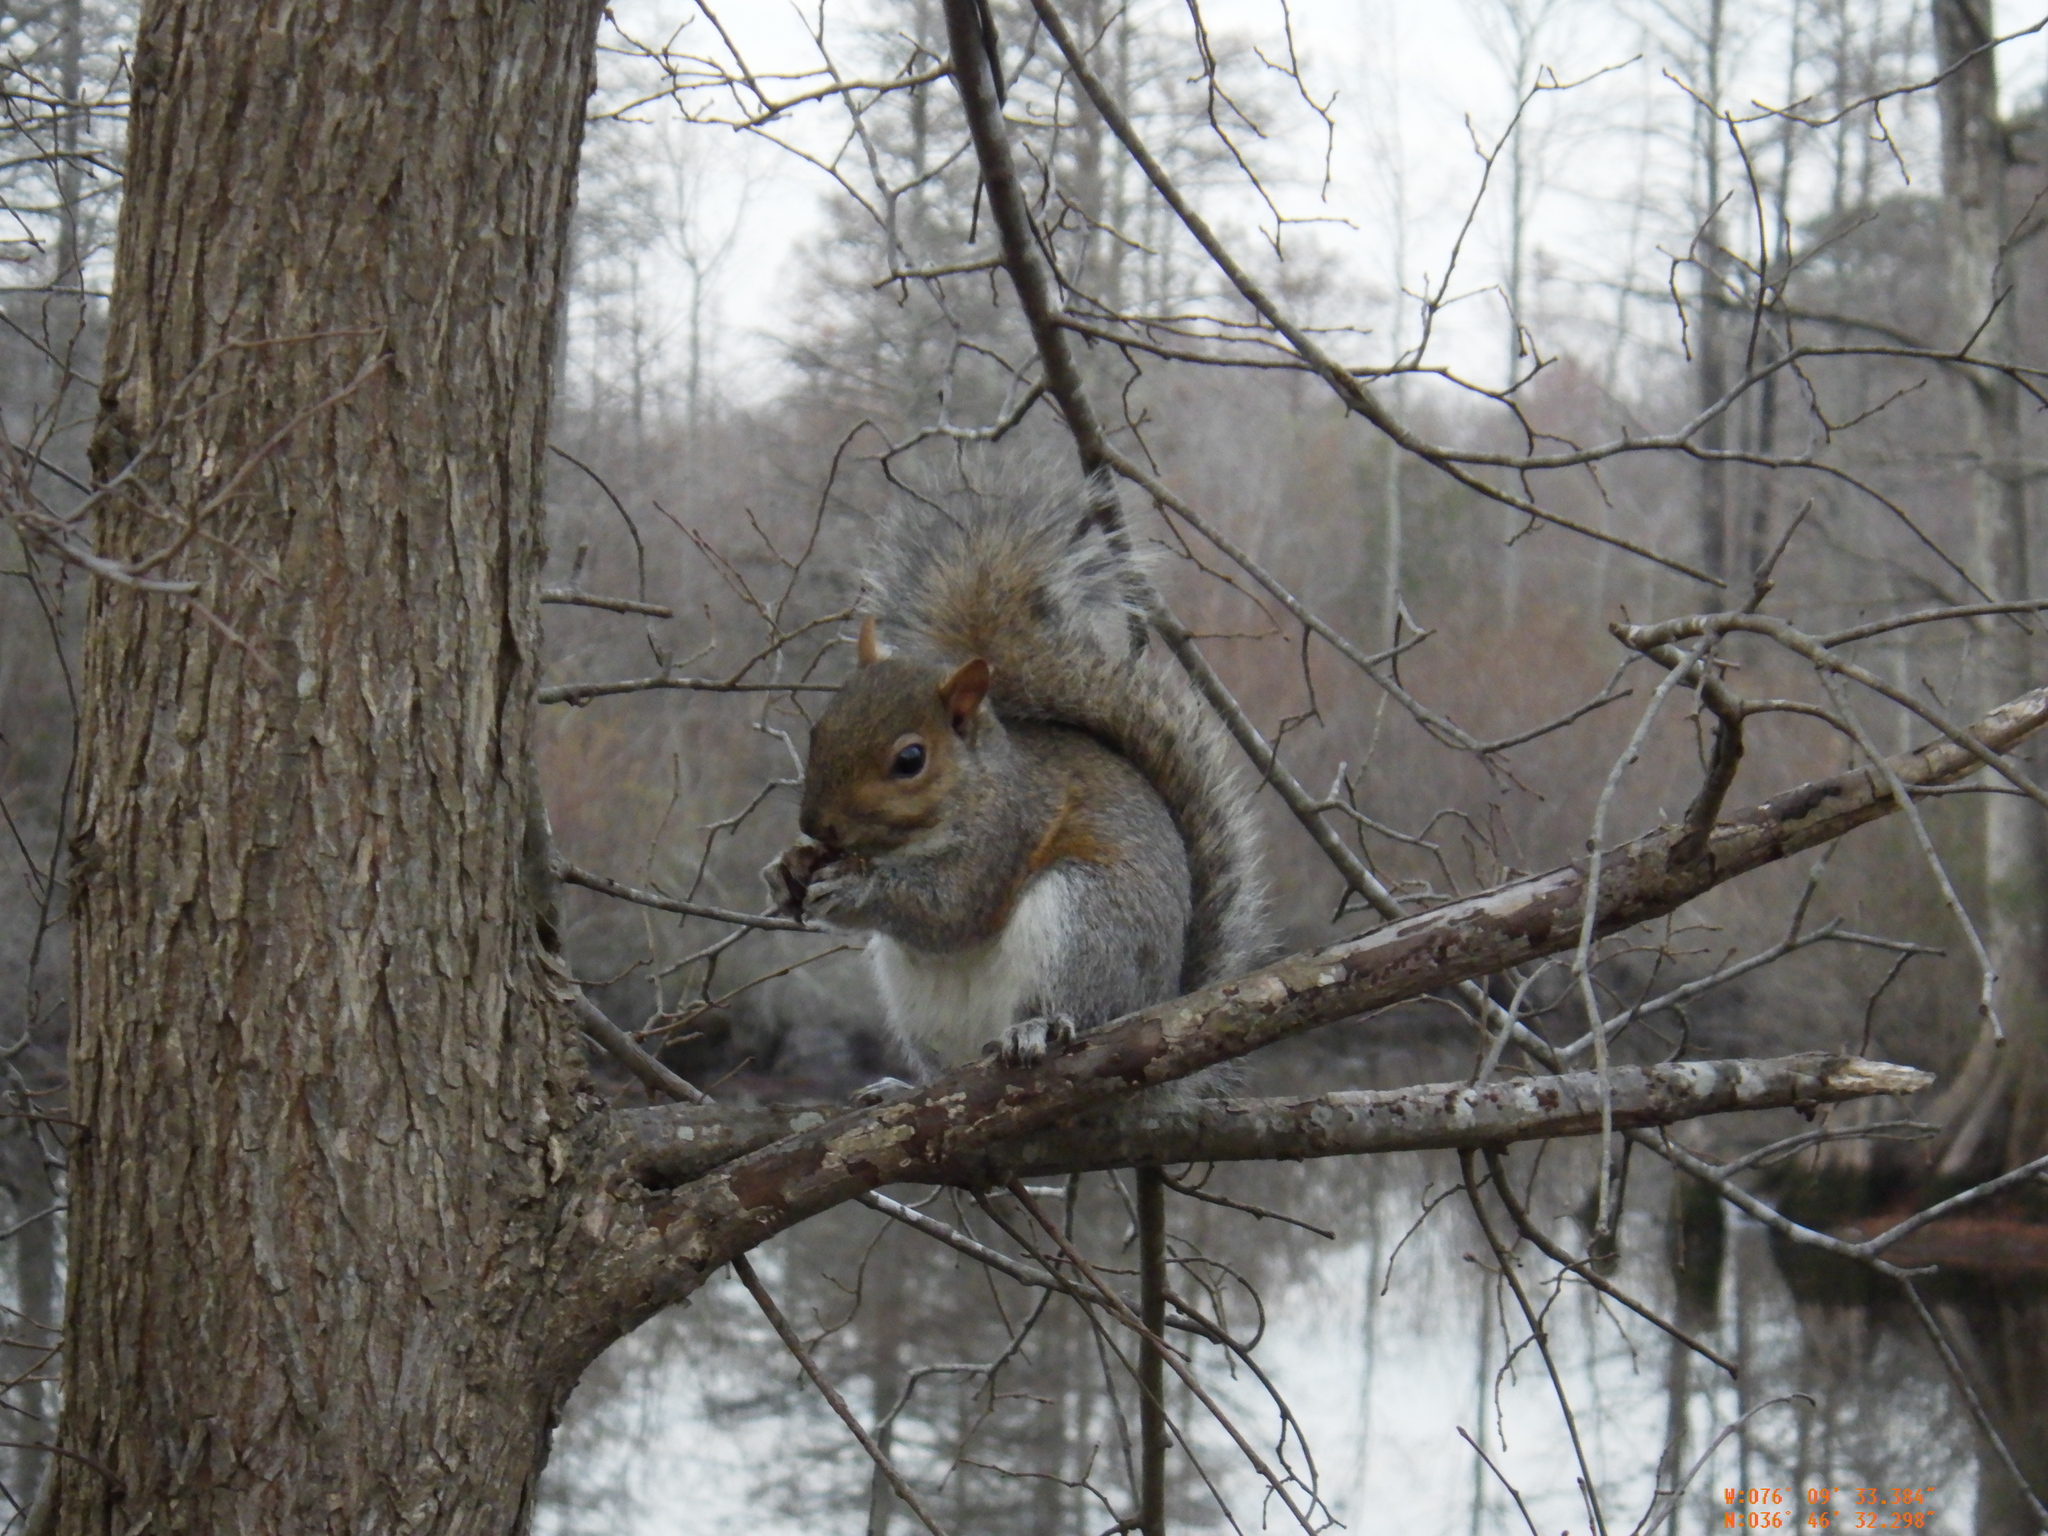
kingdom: Animalia
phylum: Chordata
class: Mammalia
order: Rodentia
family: Sciuridae
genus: Sciurus
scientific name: Sciurus carolinensis
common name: Eastern gray squirrel
